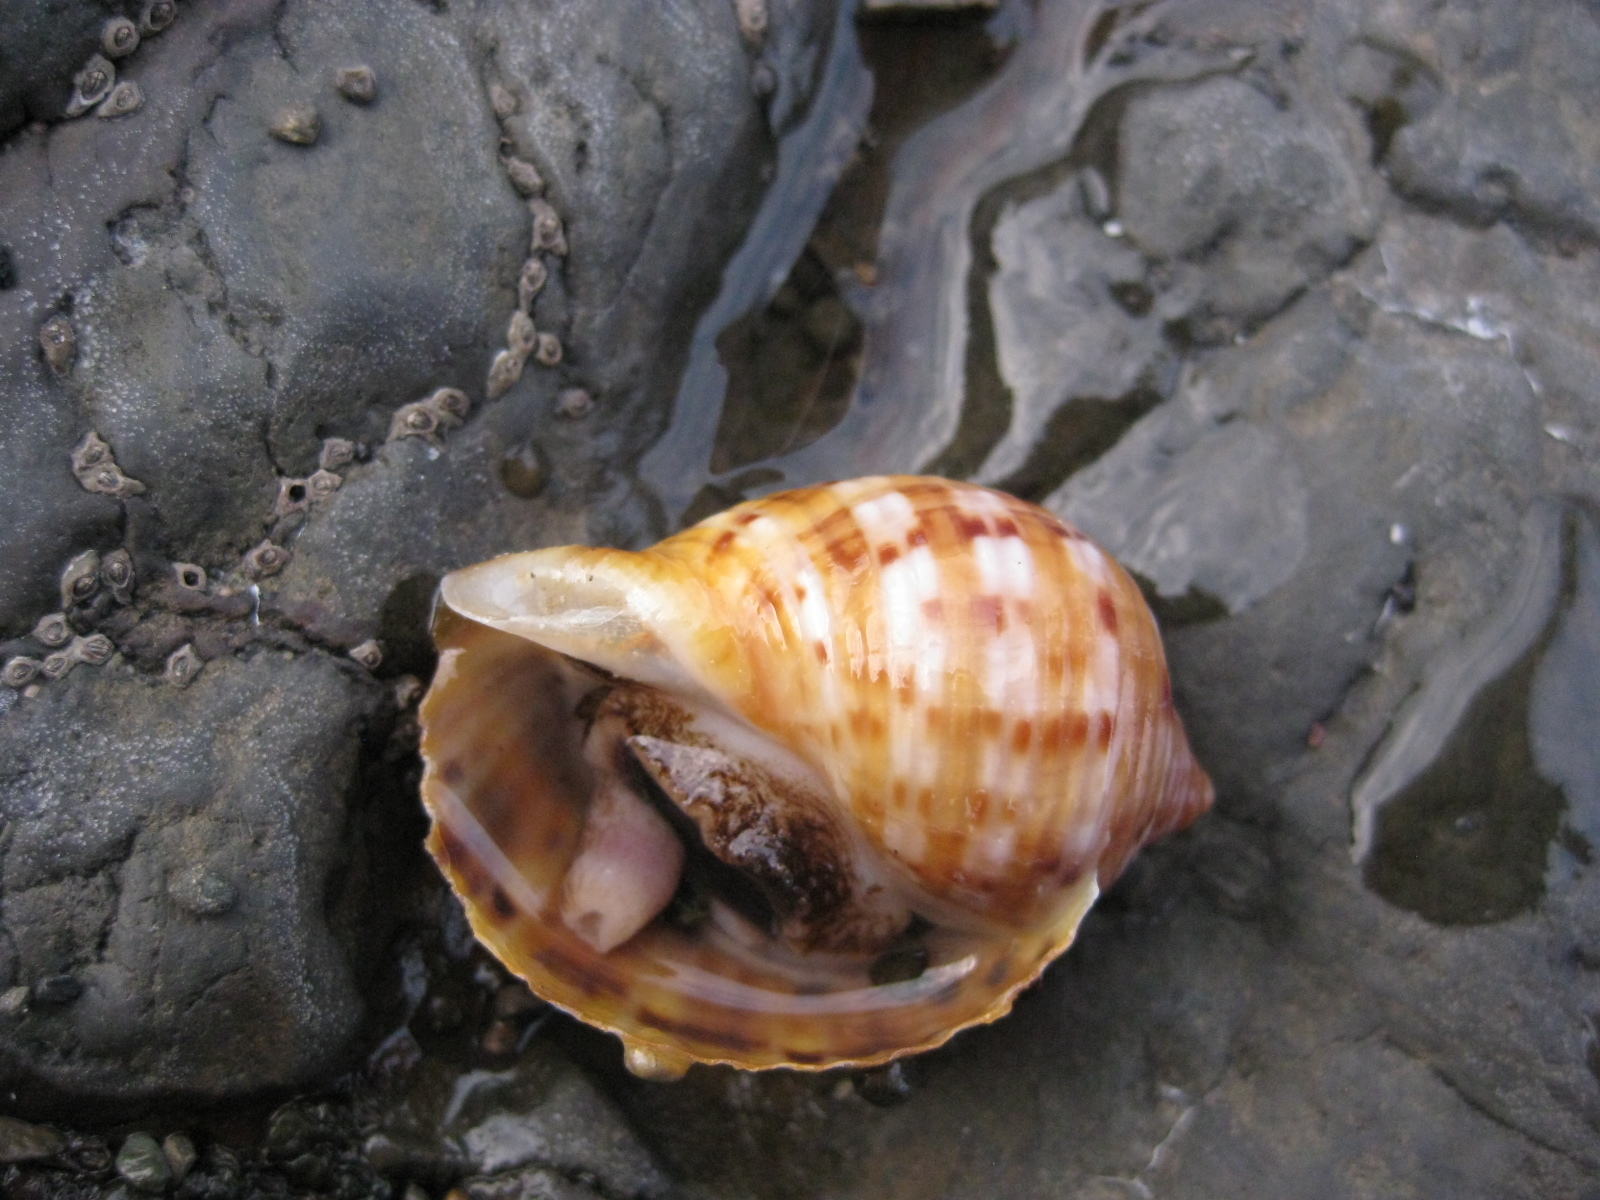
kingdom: Animalia
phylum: Mollusca
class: Gastropoda
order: Littorinimorpha
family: Tonnidae
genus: Tonna
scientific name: Tonna tankervillii
